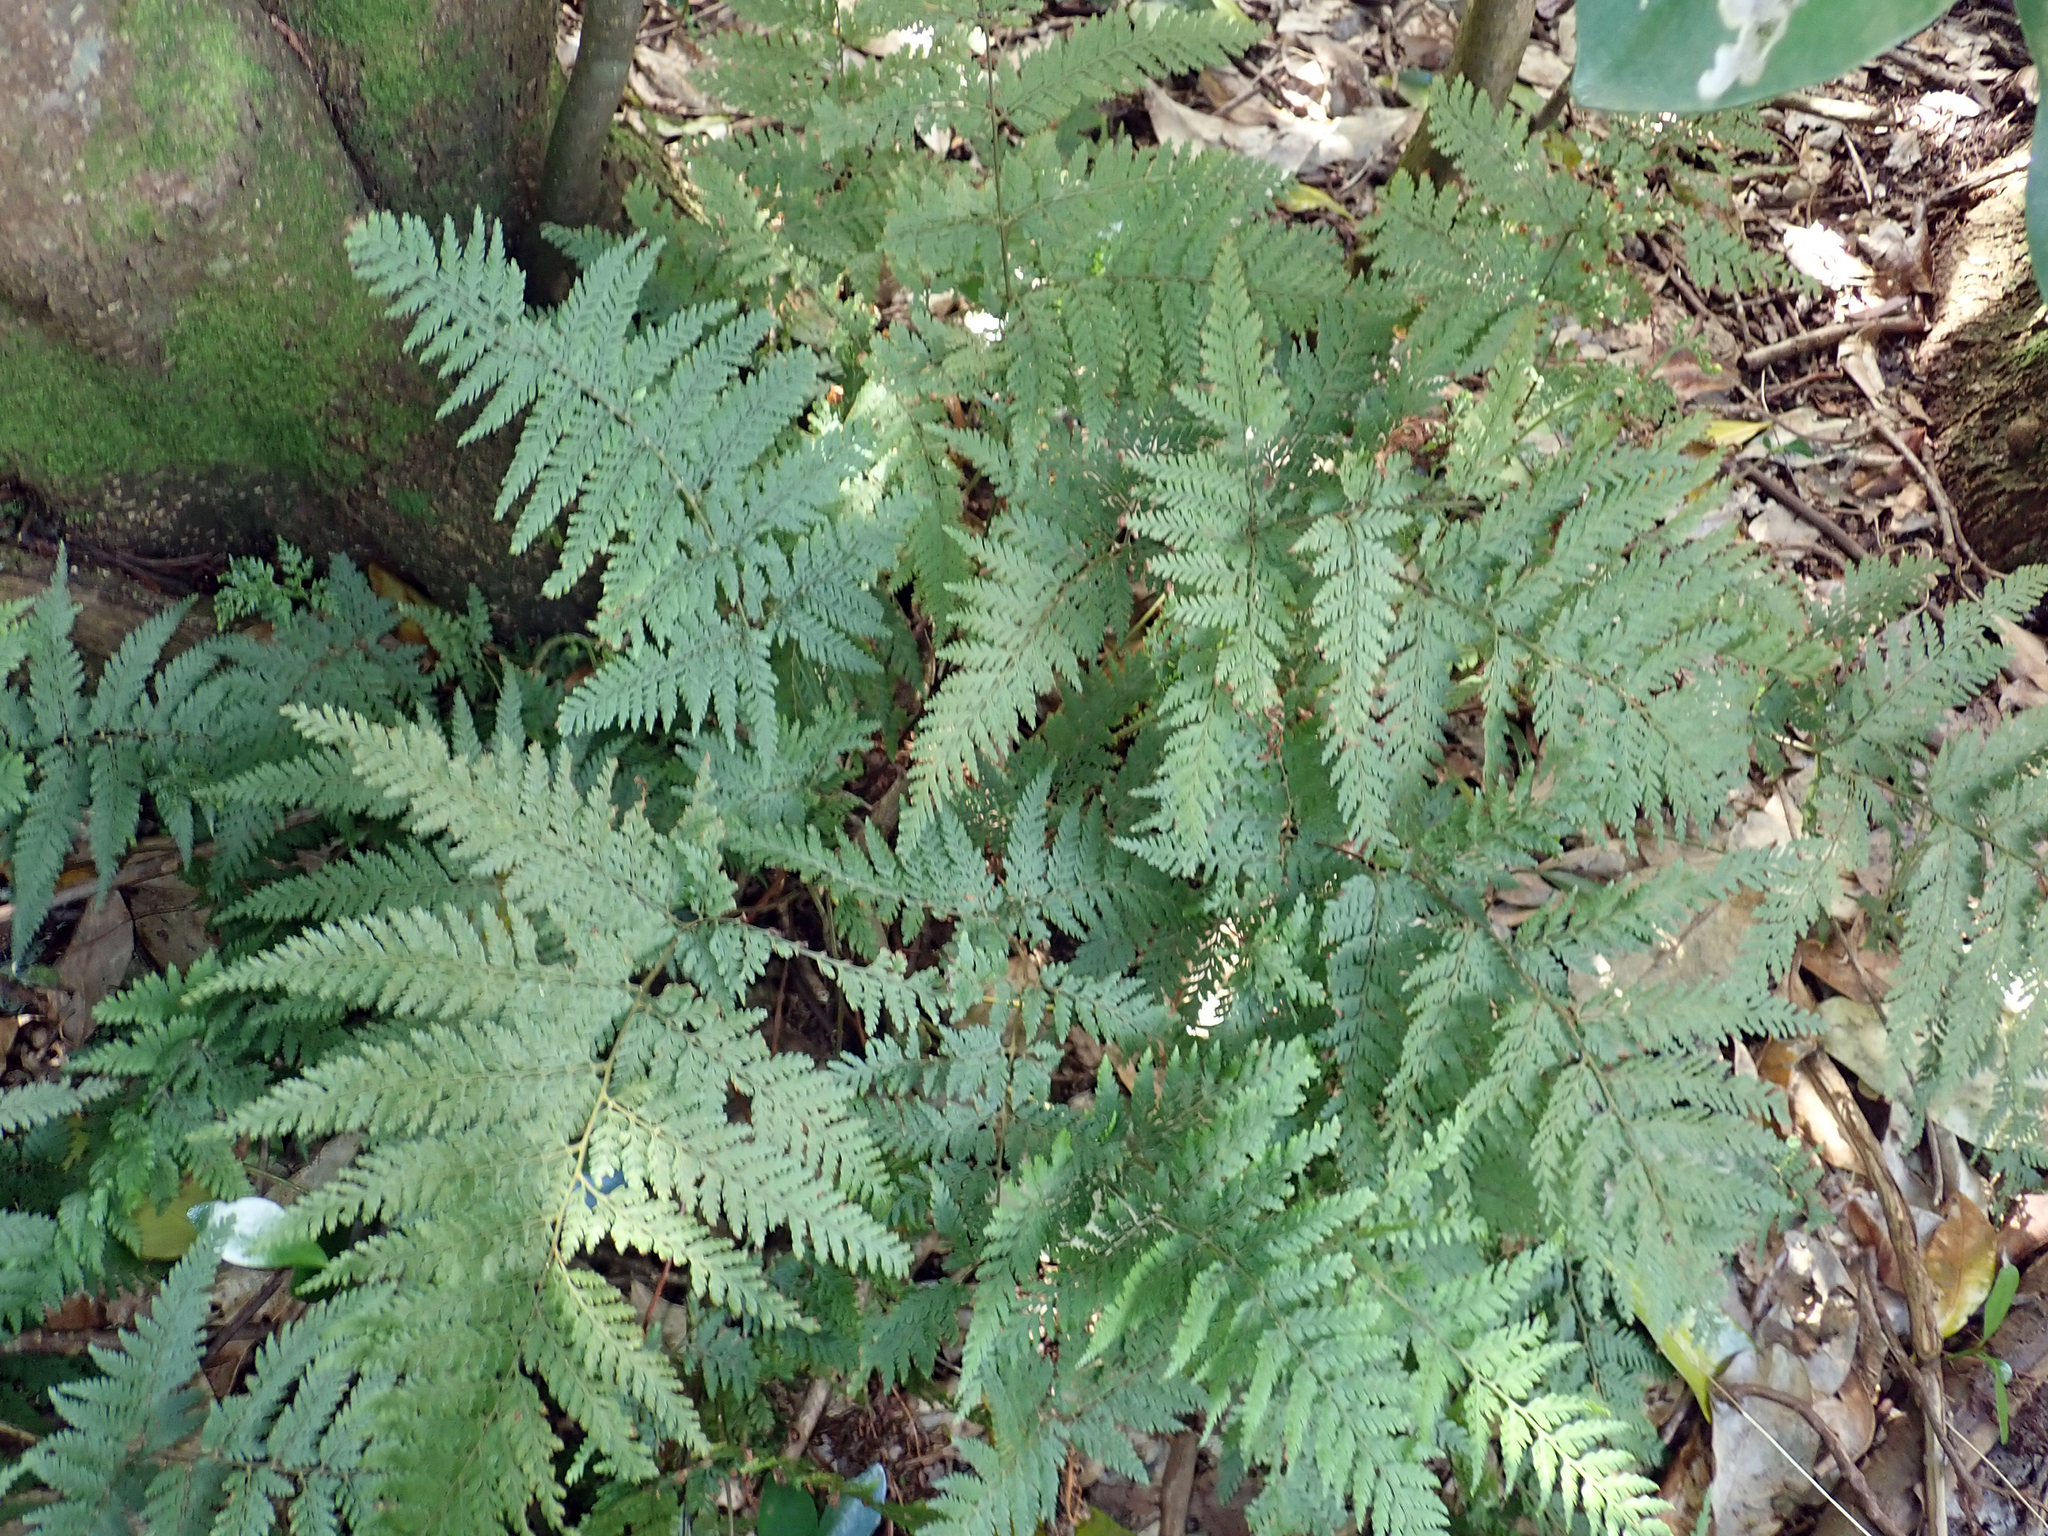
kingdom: Plantae
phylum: Tracheophyta
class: Polypodiopsida
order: Polypodiales
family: Dryopteridaceae
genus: Parapolystichum
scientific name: Parapolystichum microsorum
